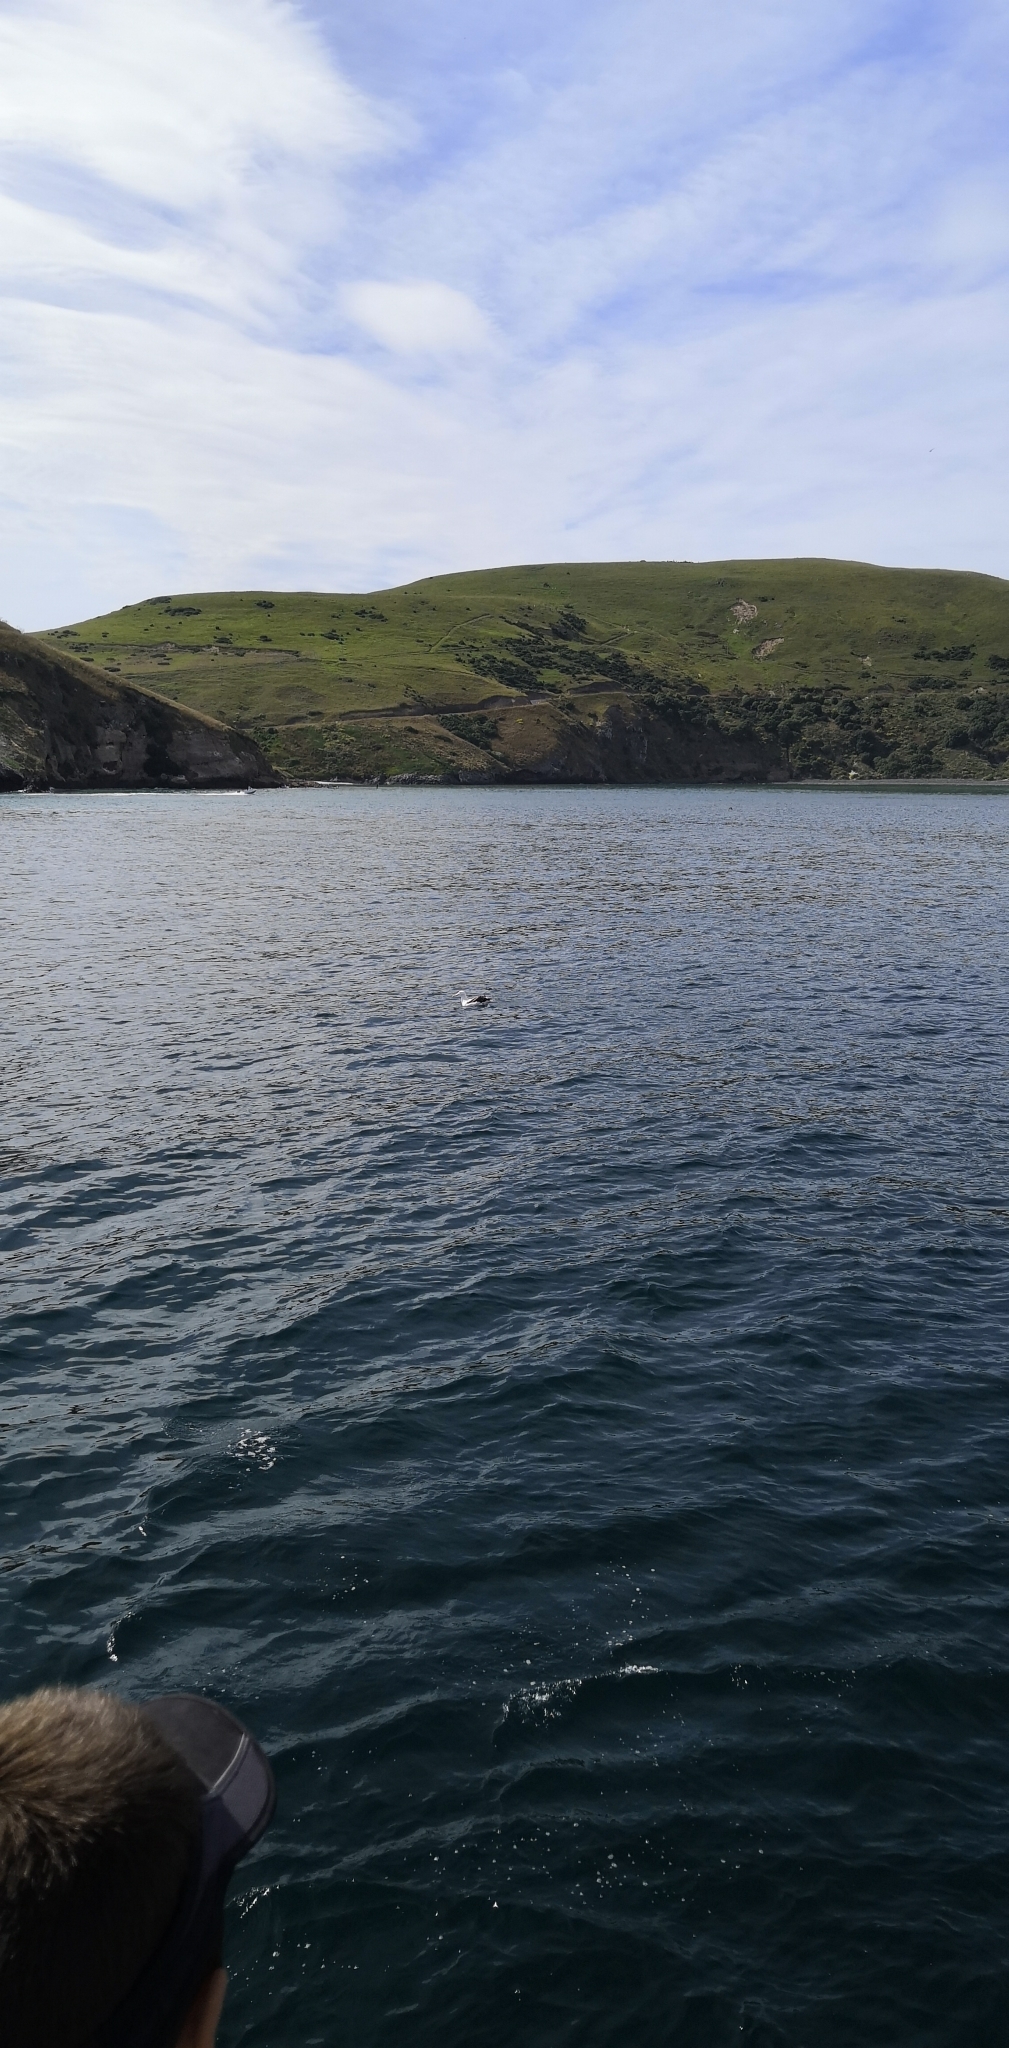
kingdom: Animalia
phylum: Chordata
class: Aves
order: Procellariiformes
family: Diomedeidae
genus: Diomedea
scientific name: Diomedea epomophora
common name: Southern royal albatross
